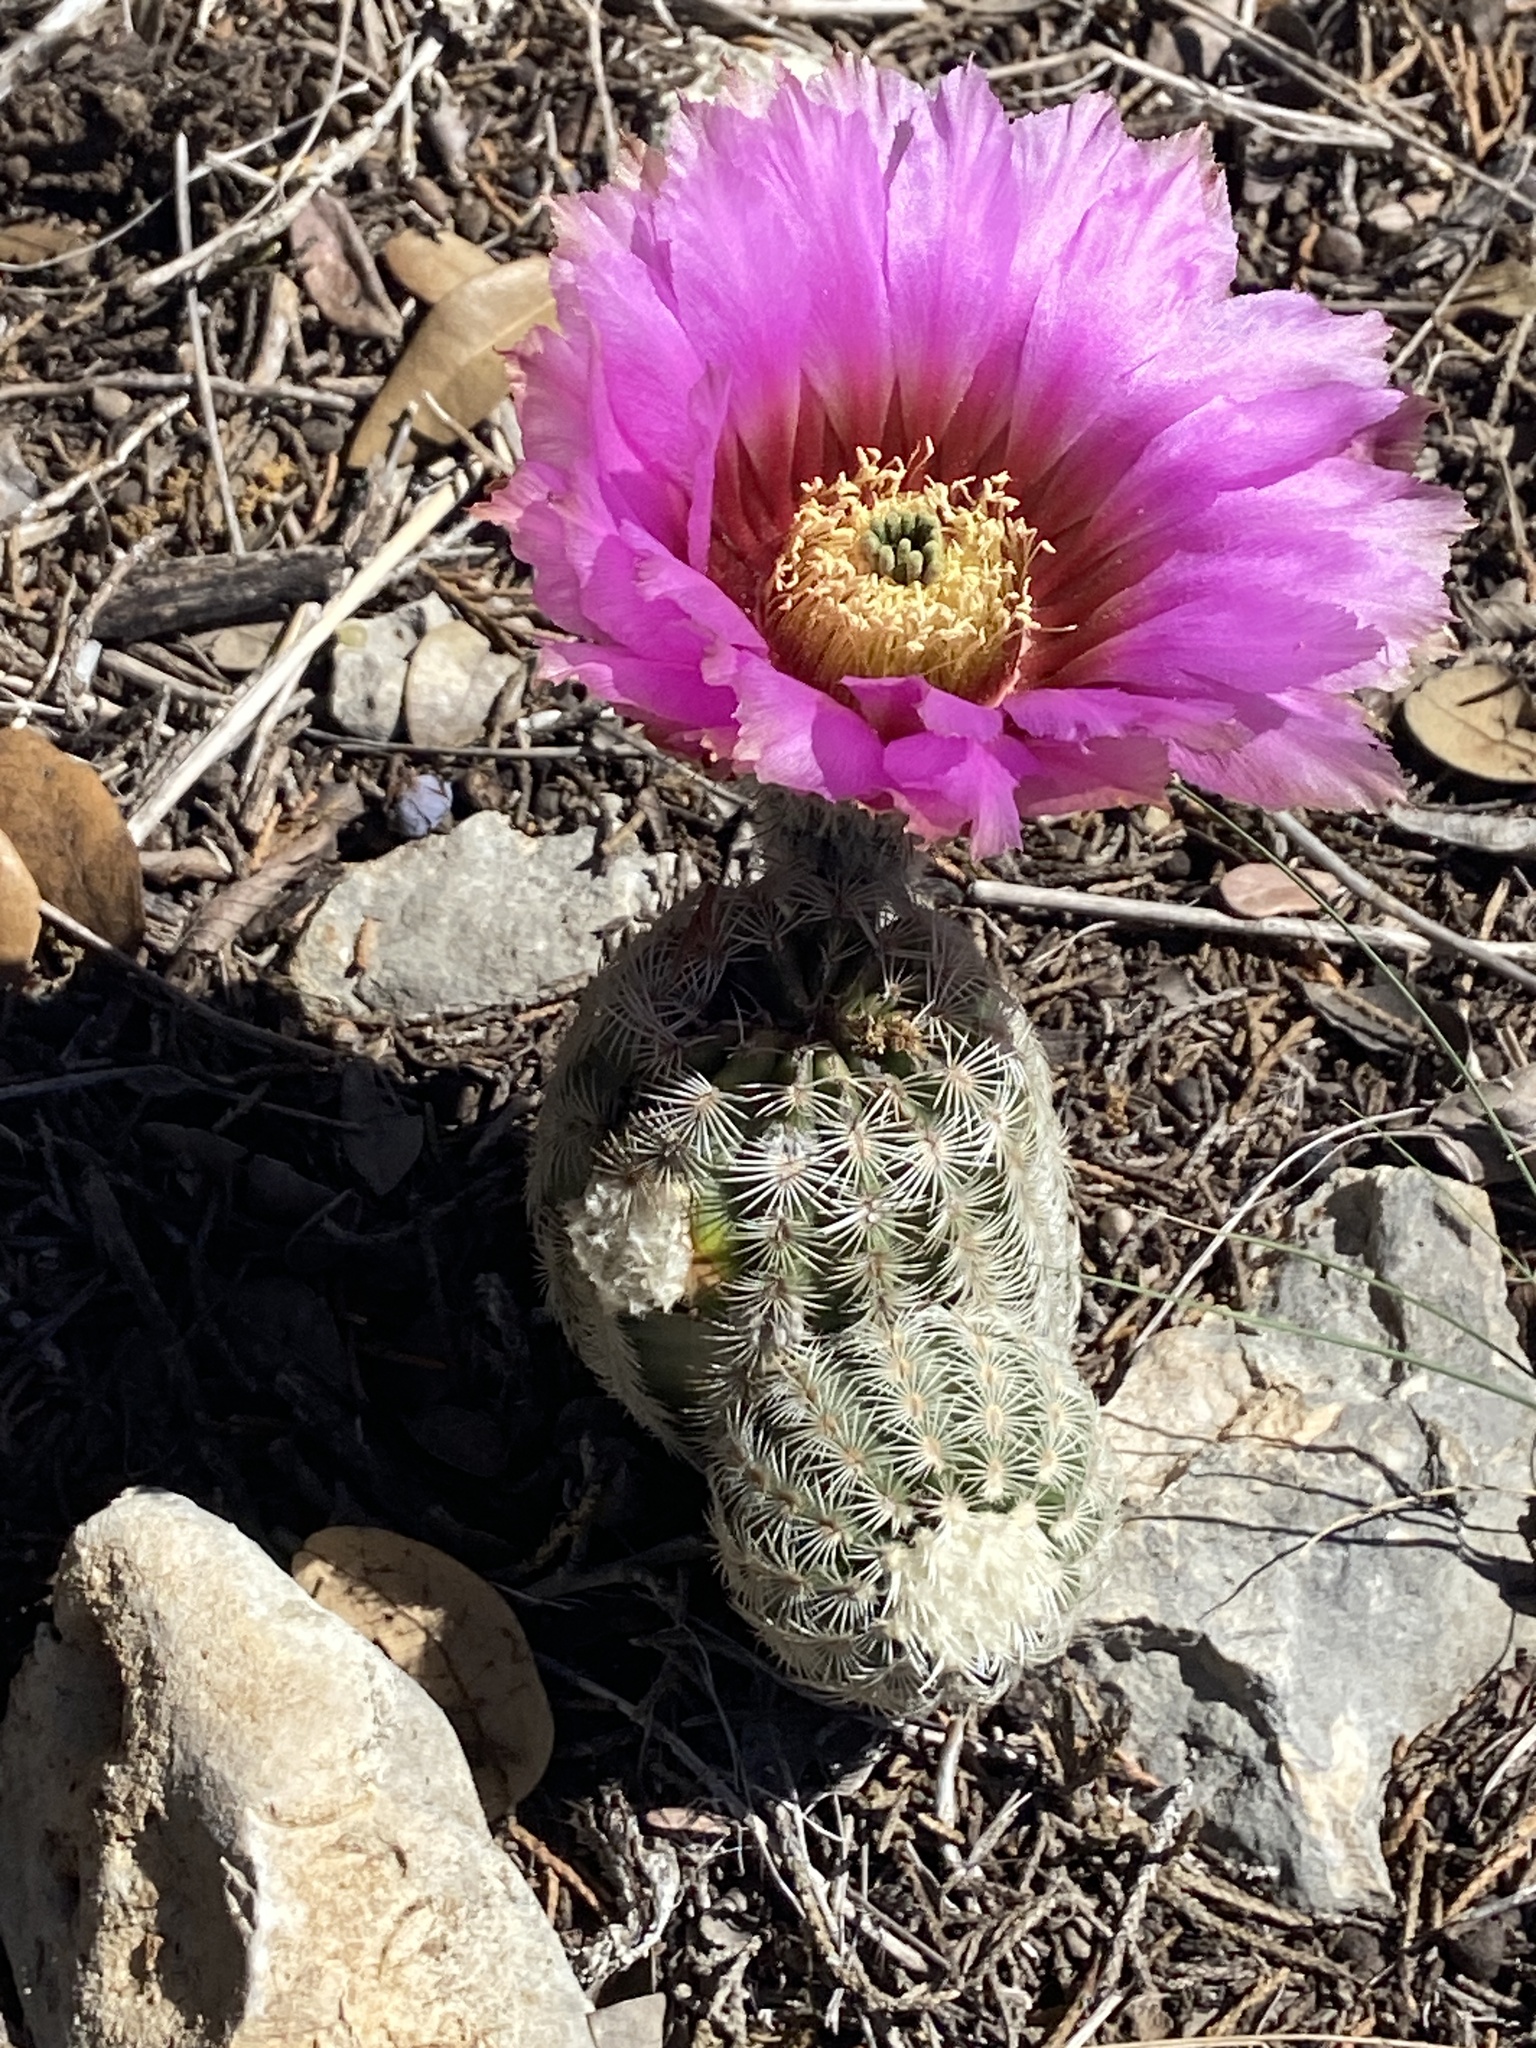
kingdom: Plantae
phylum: Tracheophyta
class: Magnoliopsida
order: Caryophyllales
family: Cactaceae
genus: Echinocereus
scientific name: Echinocereus reichenbachii
